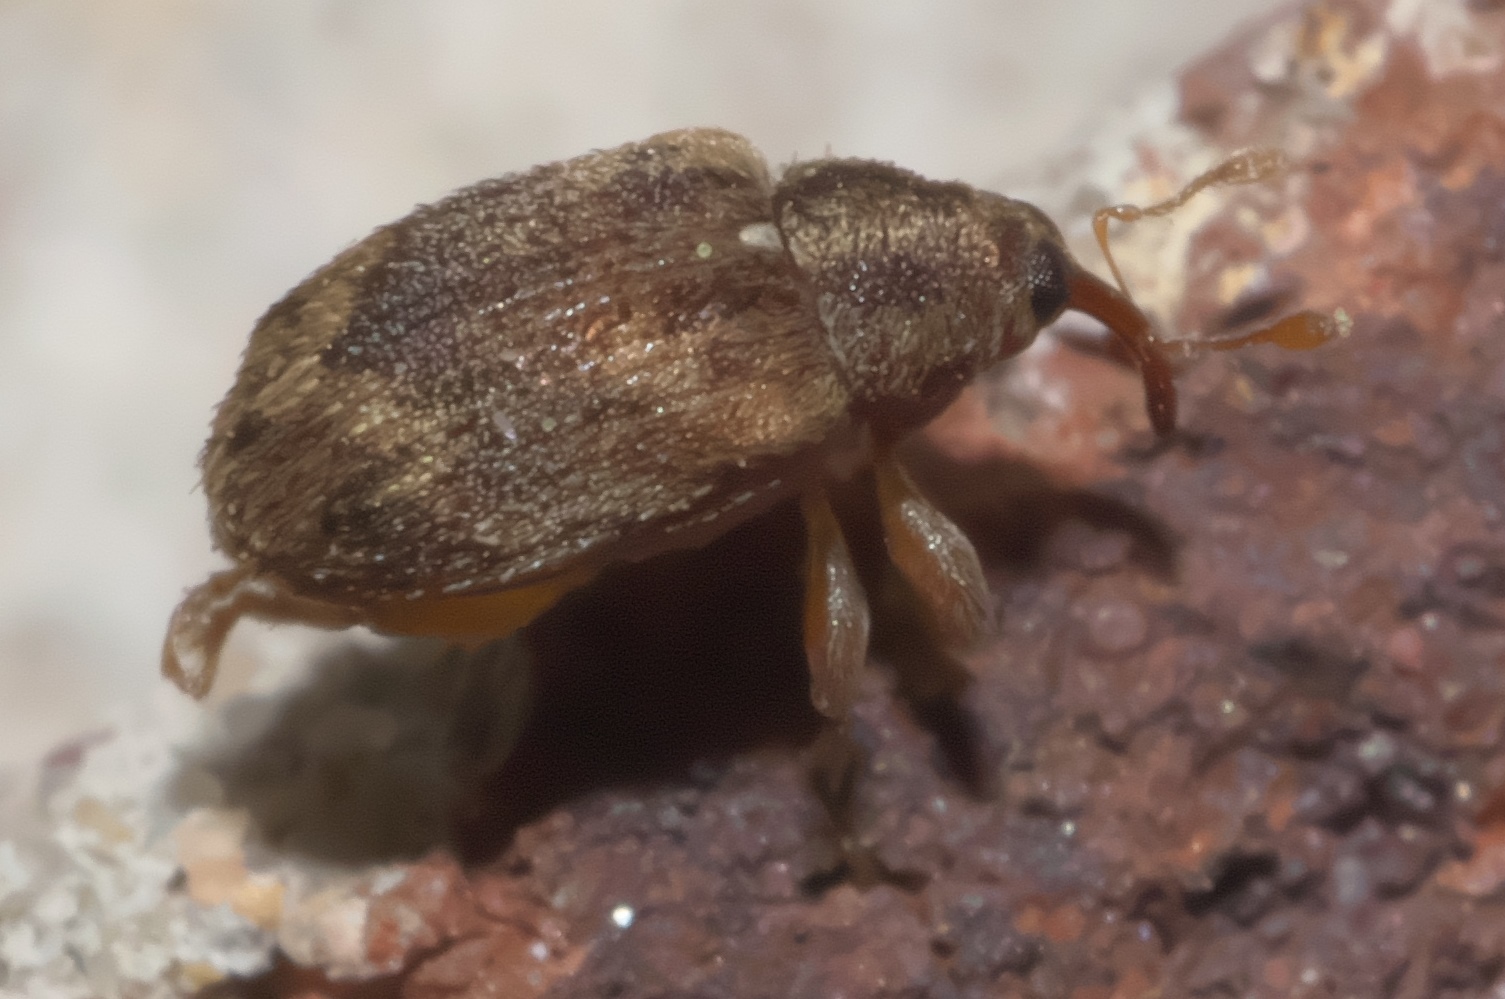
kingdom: Animalia
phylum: Arthropoda
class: Insecta
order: Coleoptera
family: Curculionidae
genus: Thysanocnemis
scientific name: Thysanocnemis bischoffi
